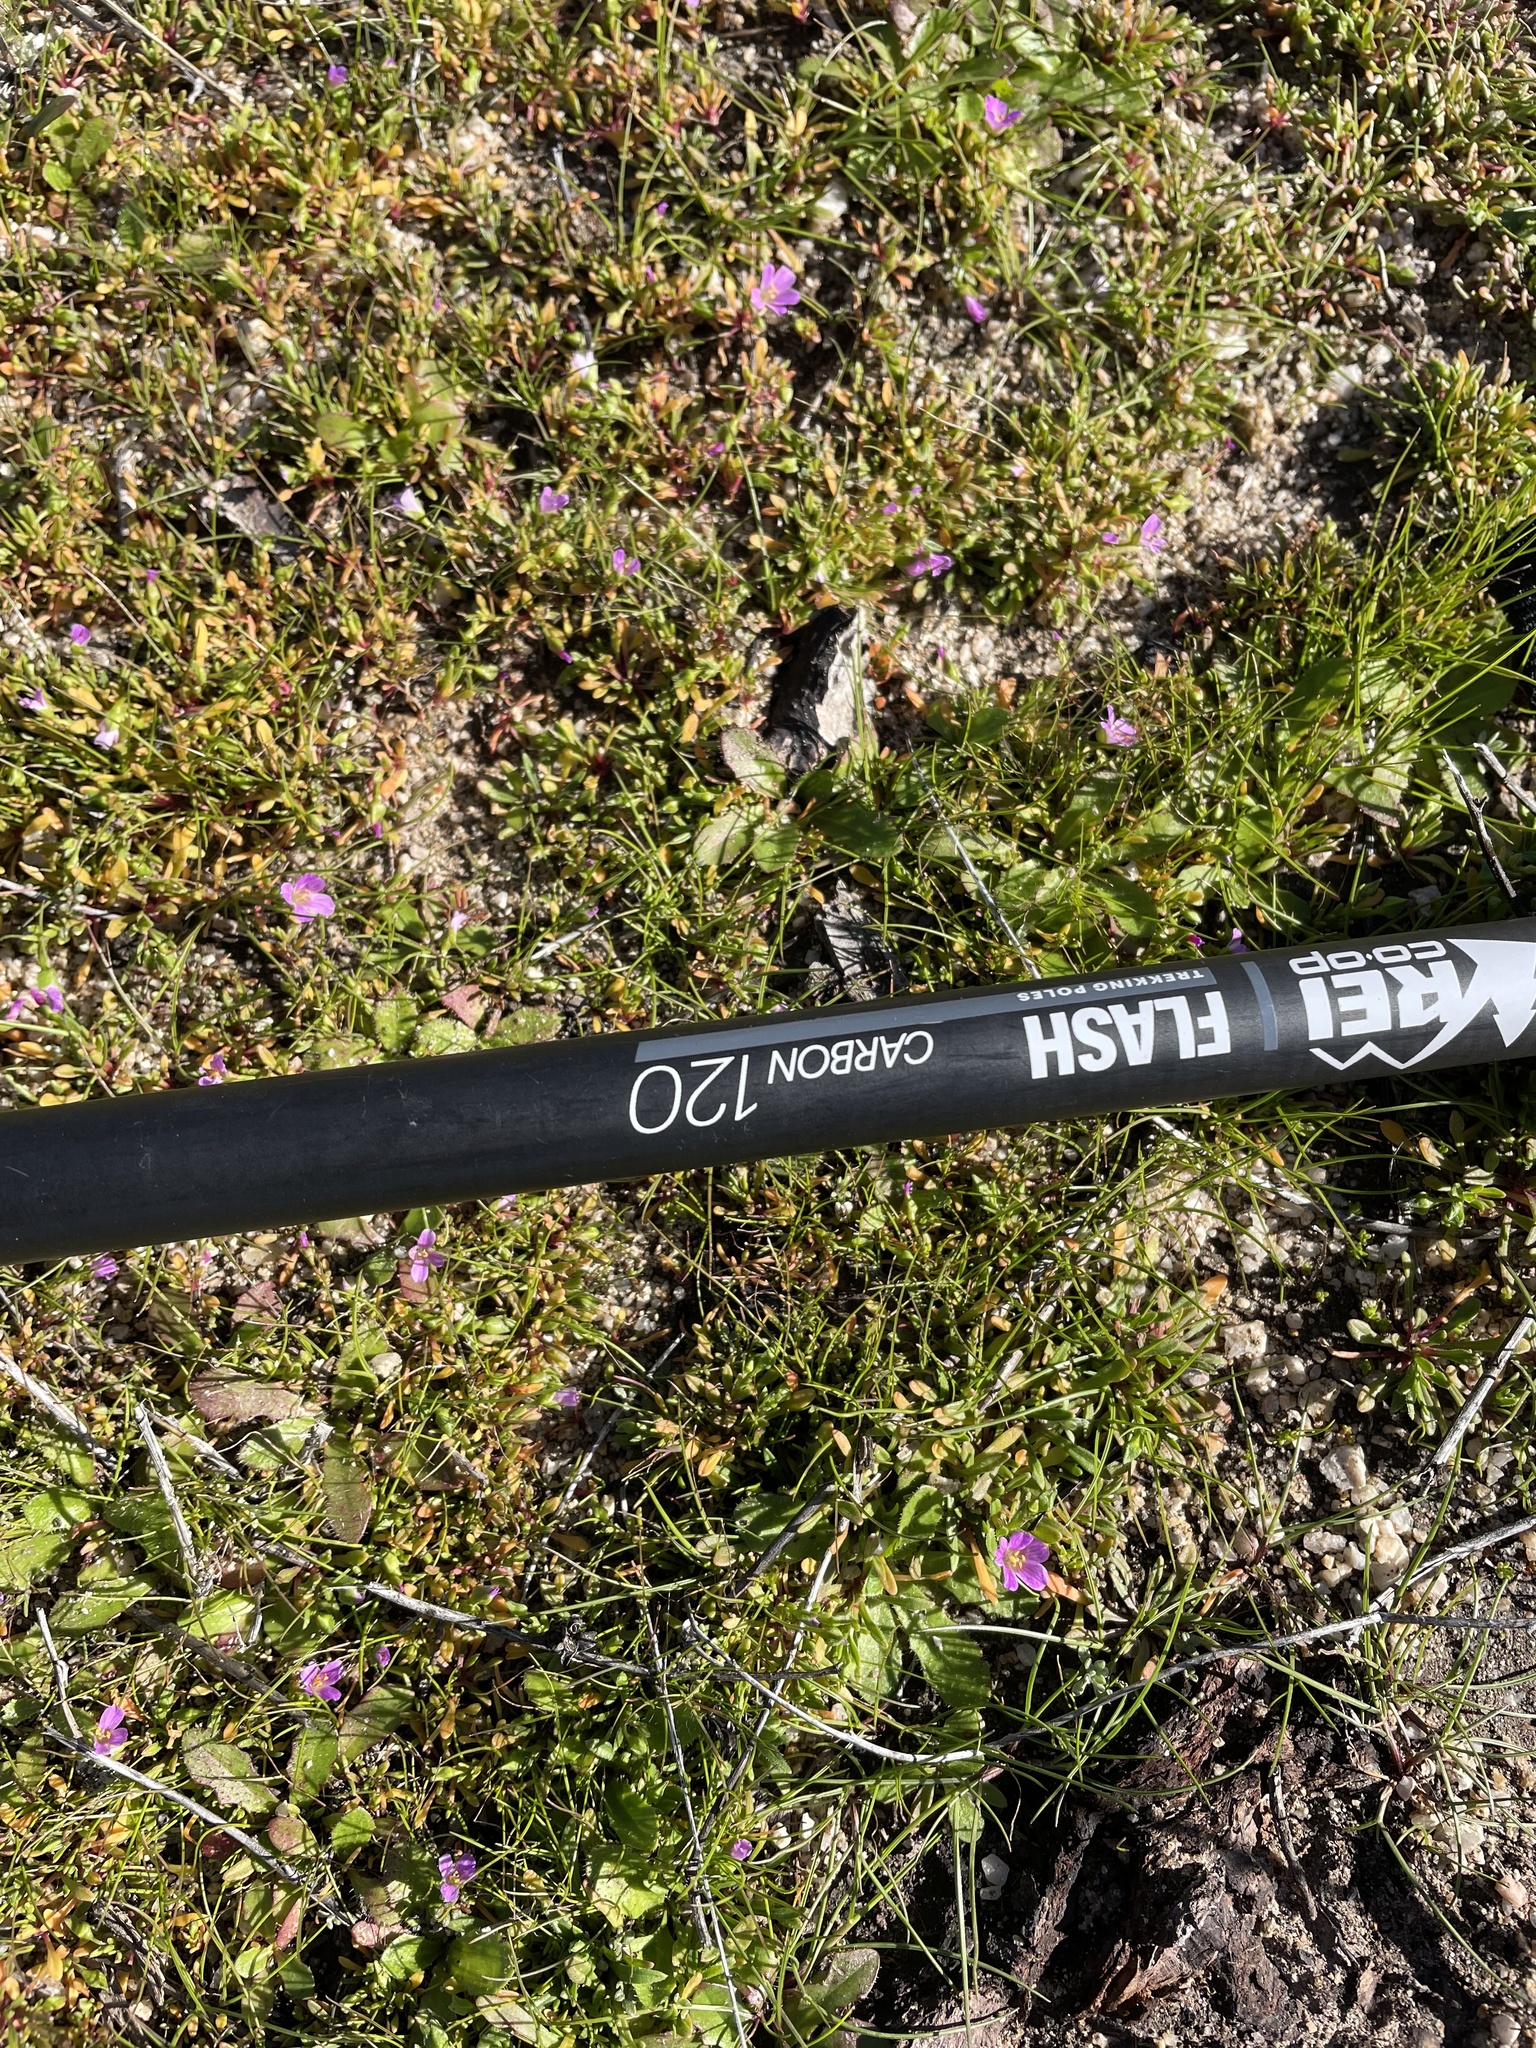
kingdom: Plantae
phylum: Tracheophyta
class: Magnoliopsida
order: Caryophyllales
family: Montiaceae
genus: Calandrinia
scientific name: Calandrinia breweri
